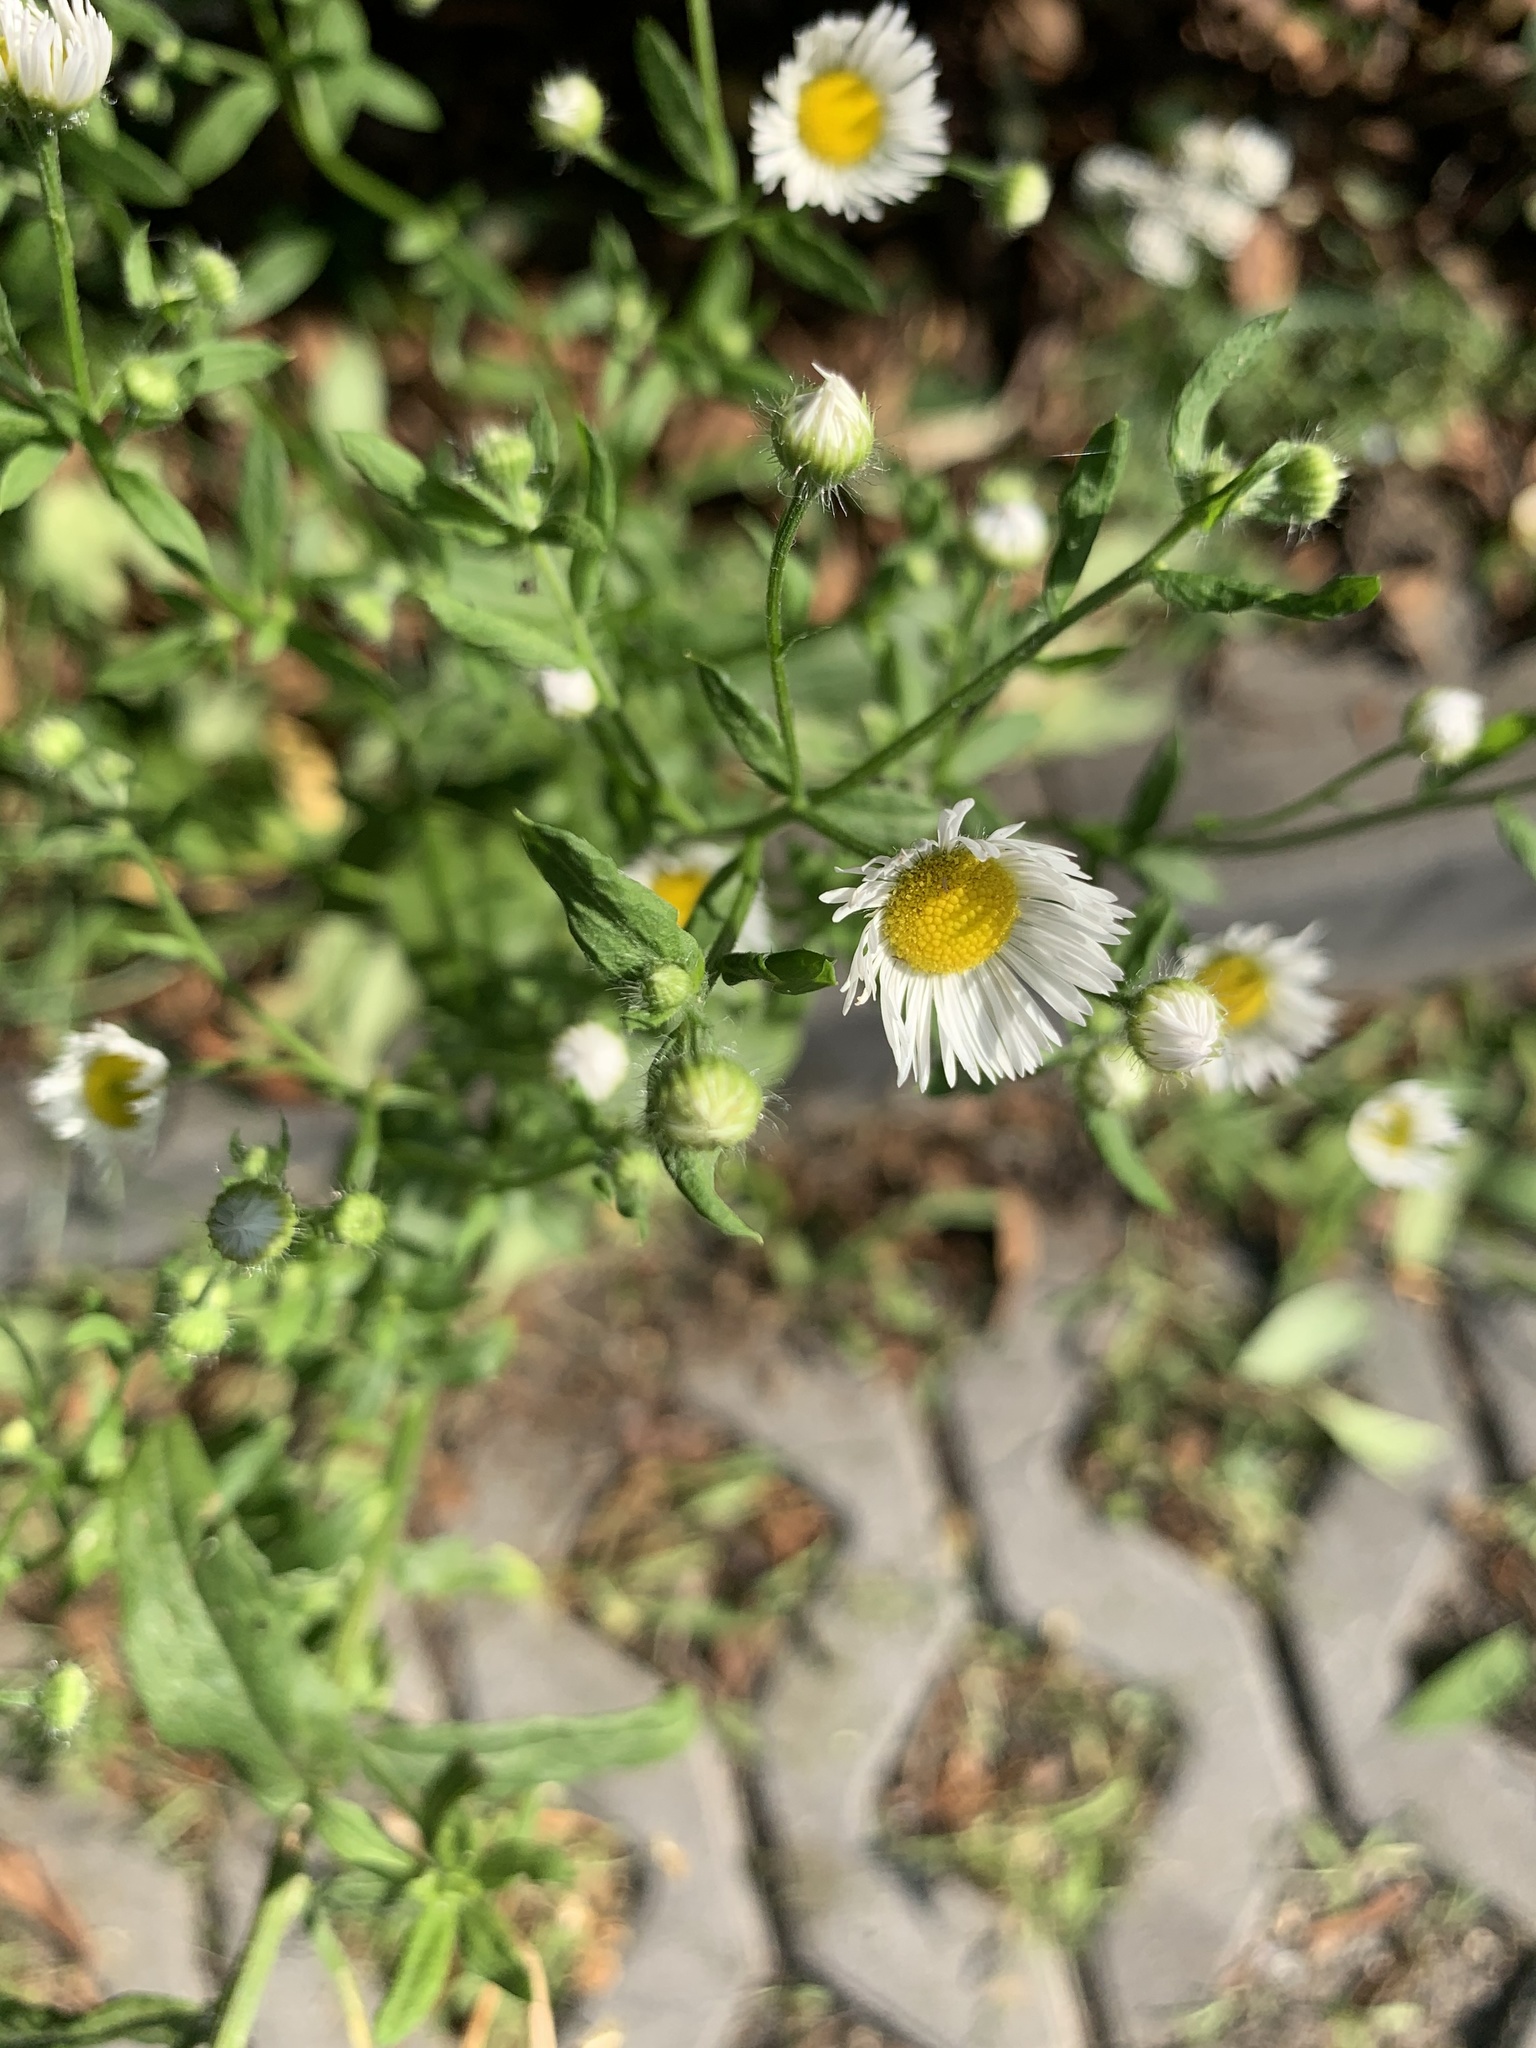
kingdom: Plantae
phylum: Tracheophyta
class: Magnoliopsida
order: Asterales
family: Asteraceae
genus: Erigeron
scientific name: Erigeron annuus
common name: Tall fleabane
